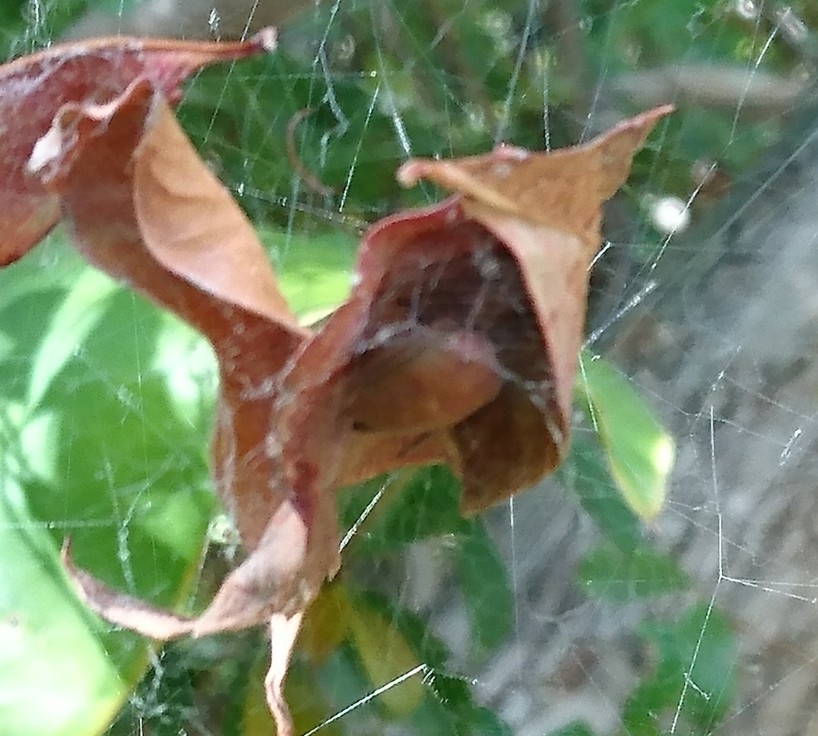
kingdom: Animalia
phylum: Arthropoda
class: Arachnida
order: Araneae
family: Araneidae
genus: Cyrtophora
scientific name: Cyrtophora citricola
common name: Orb weavers
